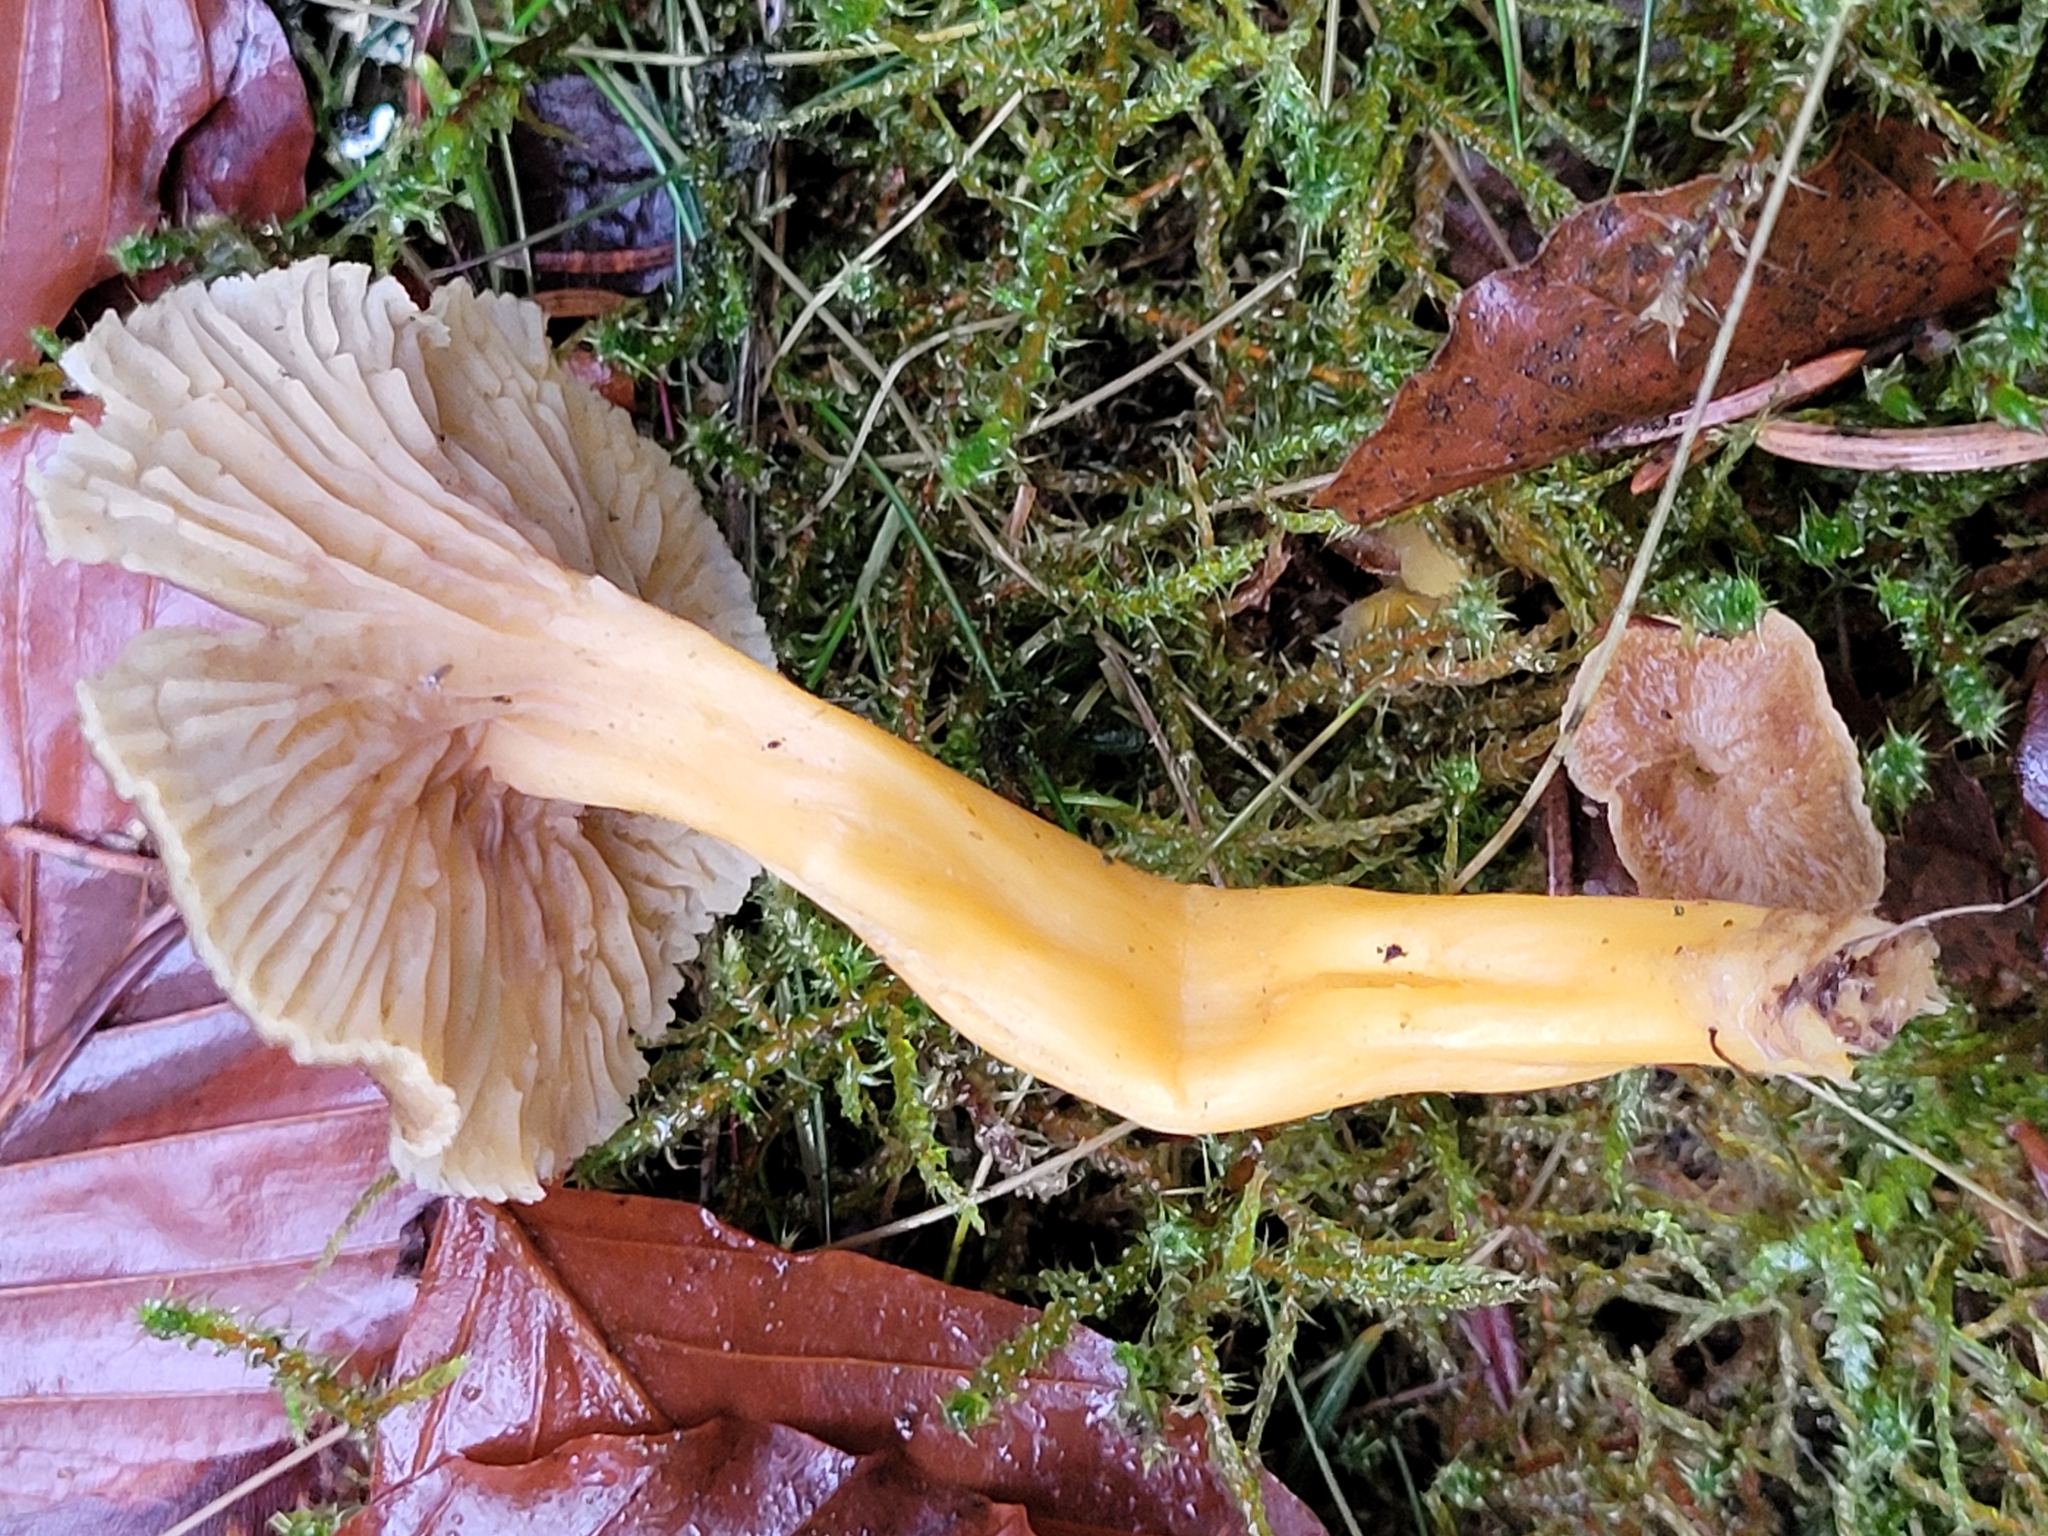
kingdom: Fungi
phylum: Basidiomycota
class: Agaricomycetes
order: Cantharellales
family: Hydnaceae
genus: Craterellus
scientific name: Craterellus tubaeformis
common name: Yellowfoot
